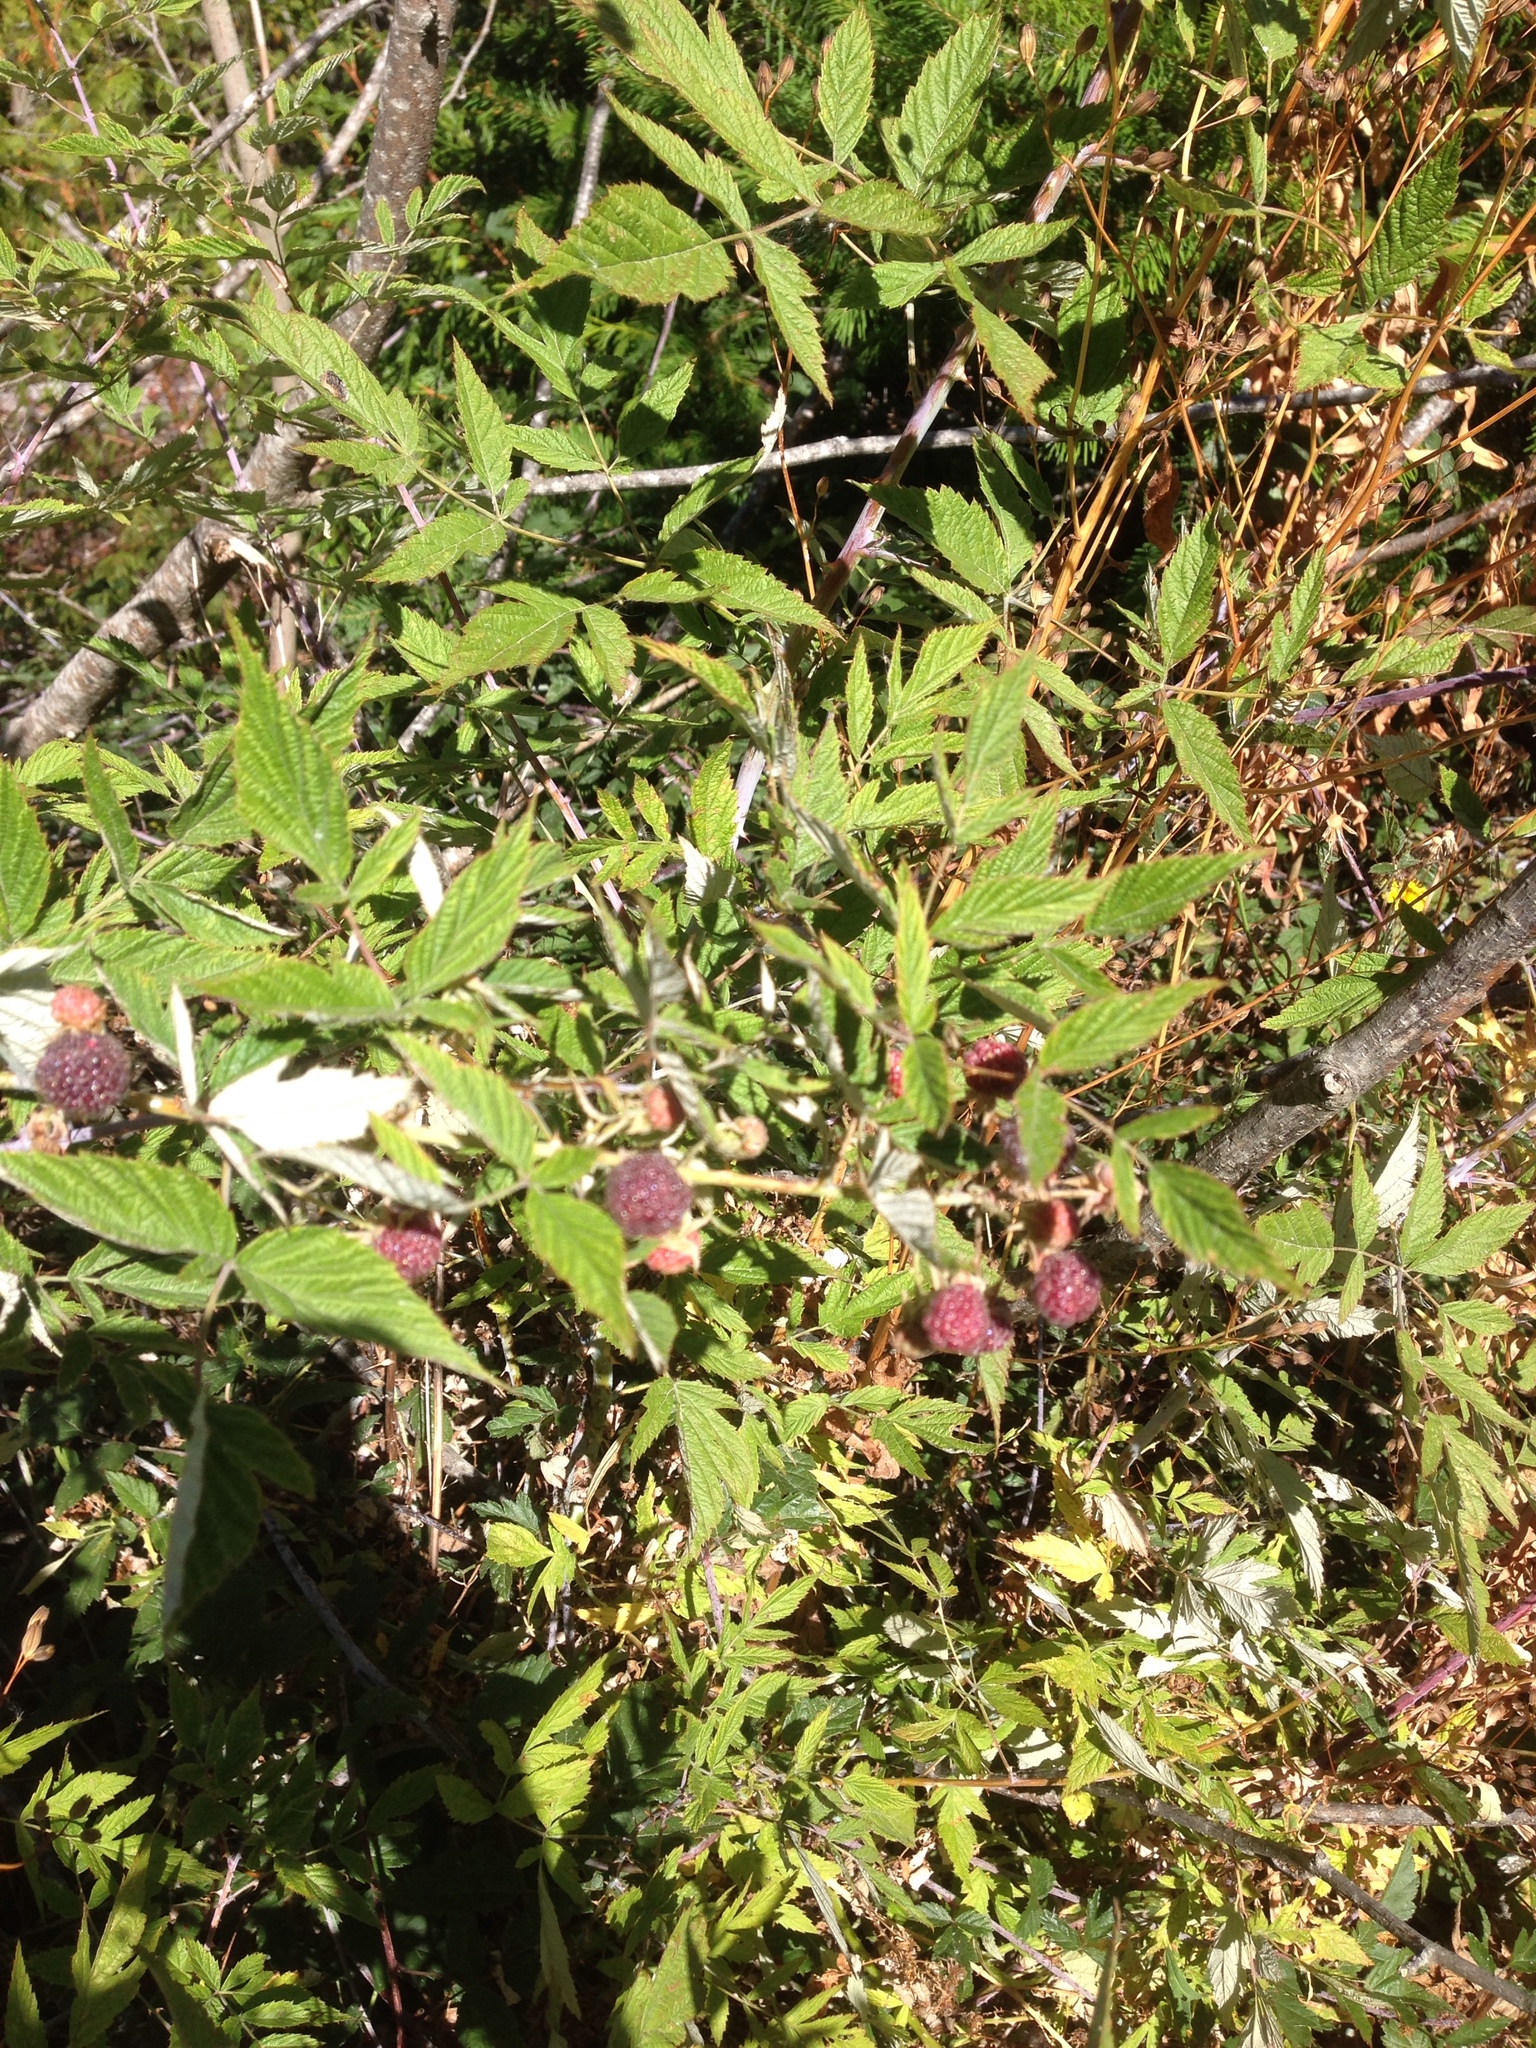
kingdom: Plantae
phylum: Tracheophyta
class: Magnoliopsida
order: Rosales
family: Rosaceae
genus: Rubus
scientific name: Rubus leucodermis
